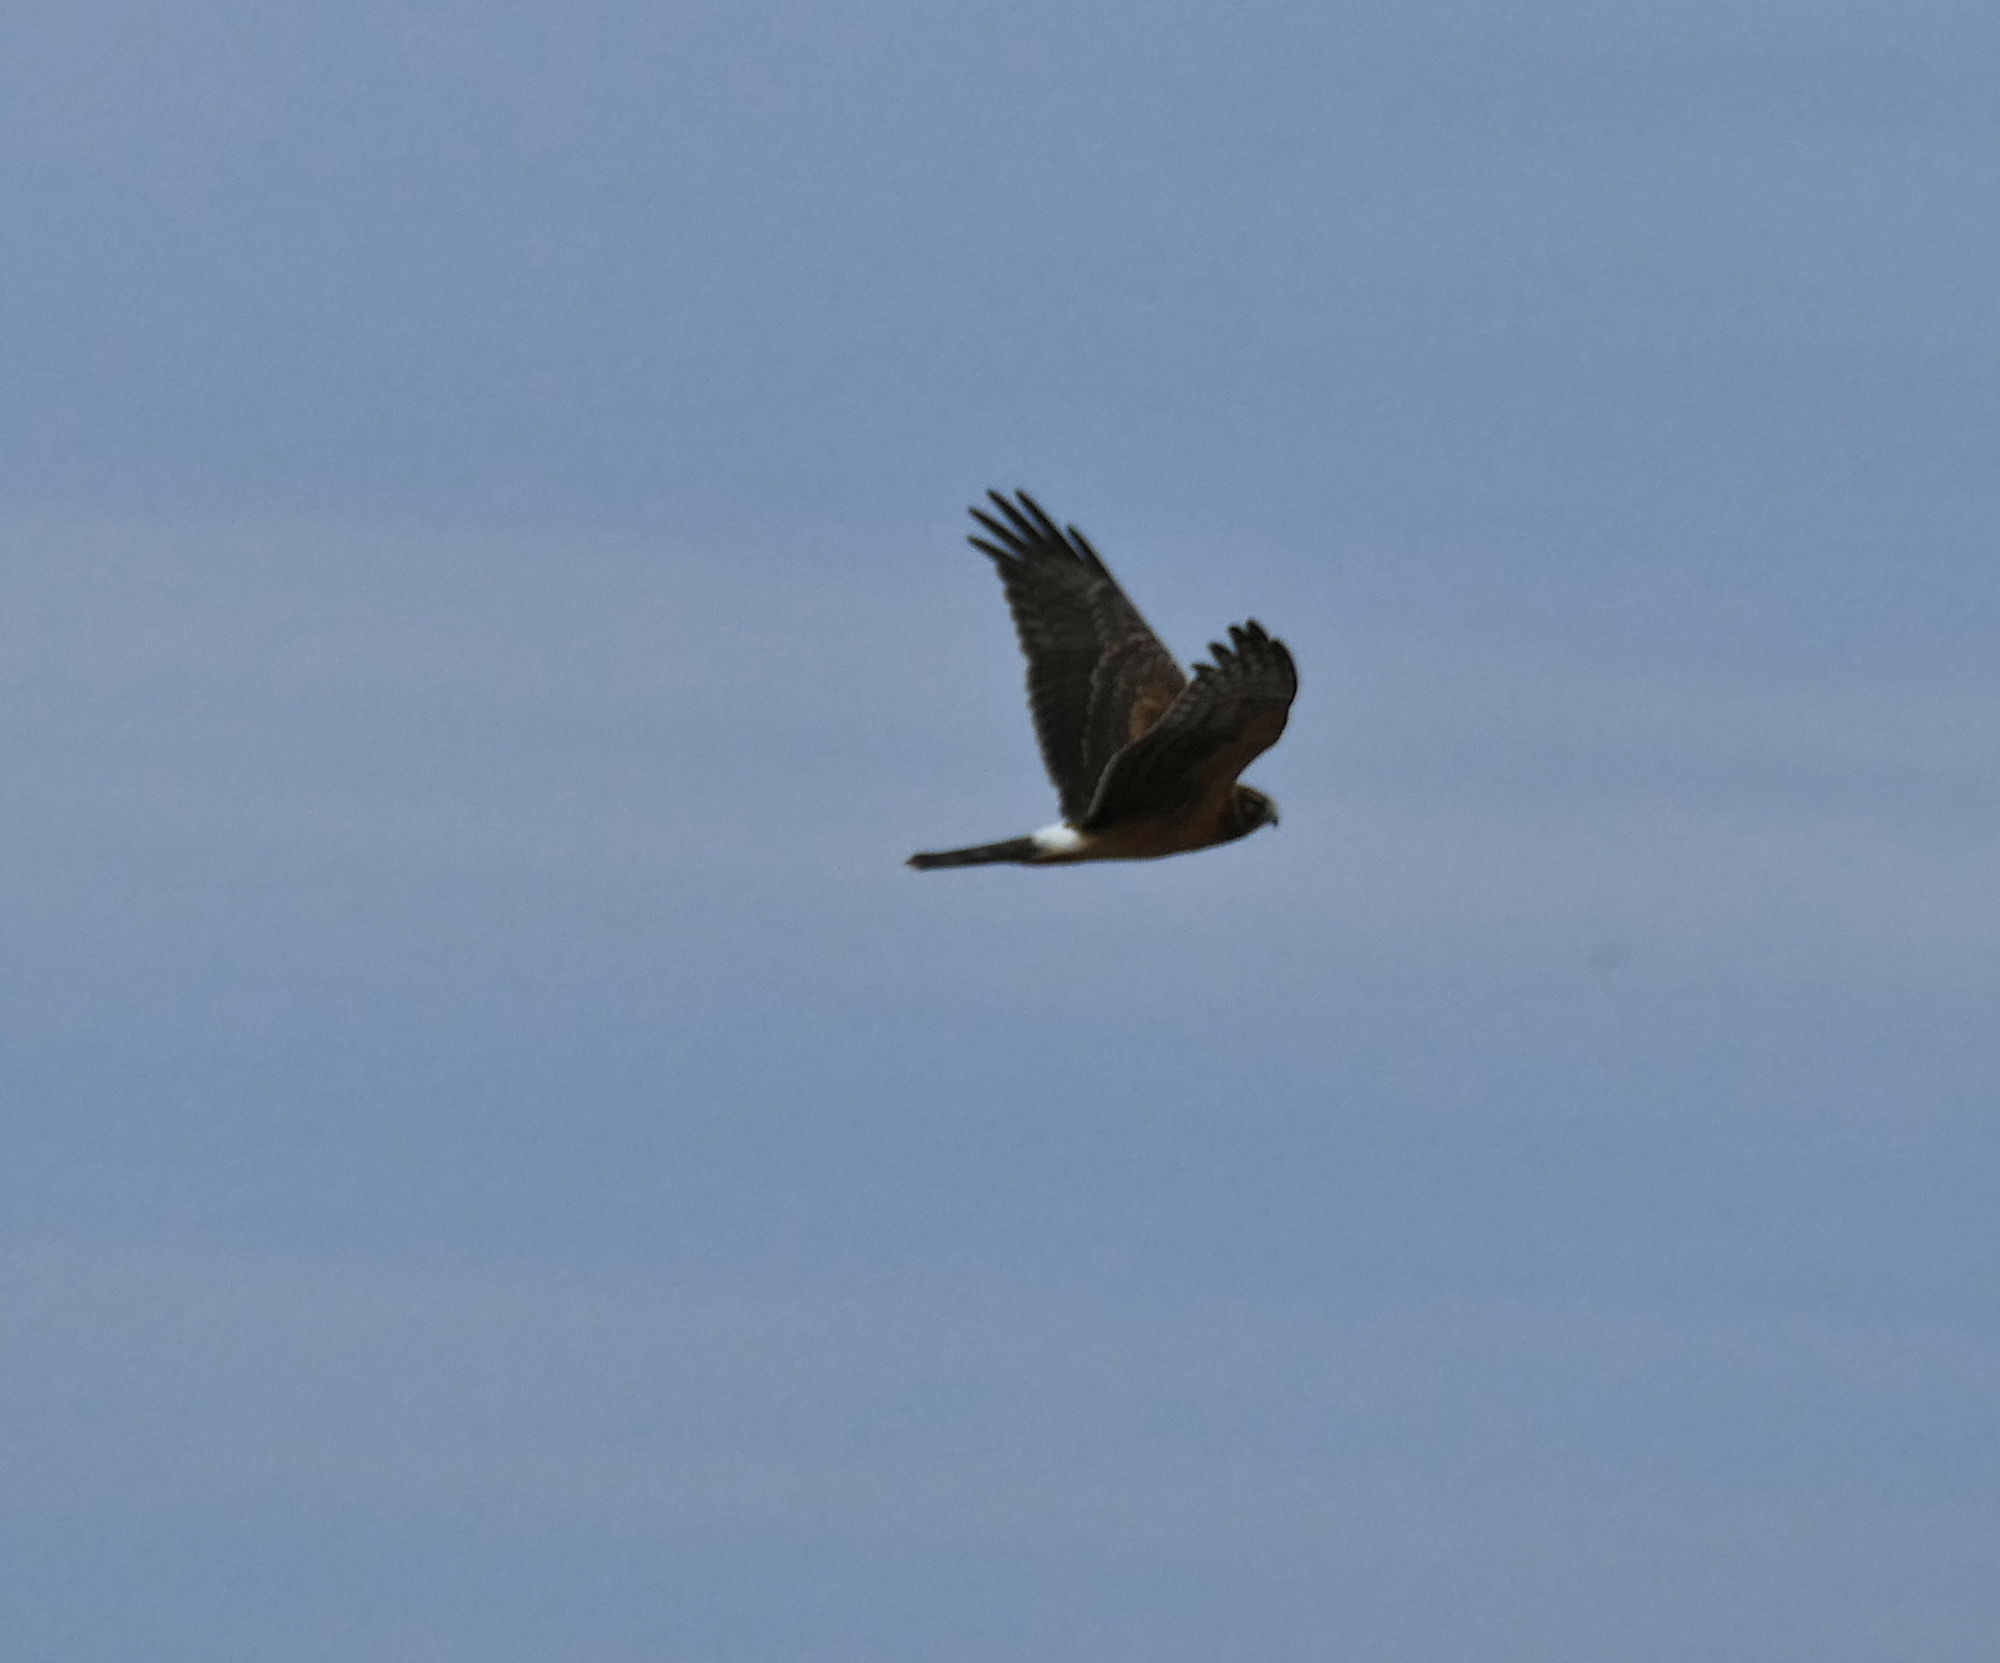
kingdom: Animalia
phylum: Chordata
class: Aves
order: Accipitriformes
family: Accipitridae
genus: Circus
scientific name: Circus cyaneus
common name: Hen harrier
